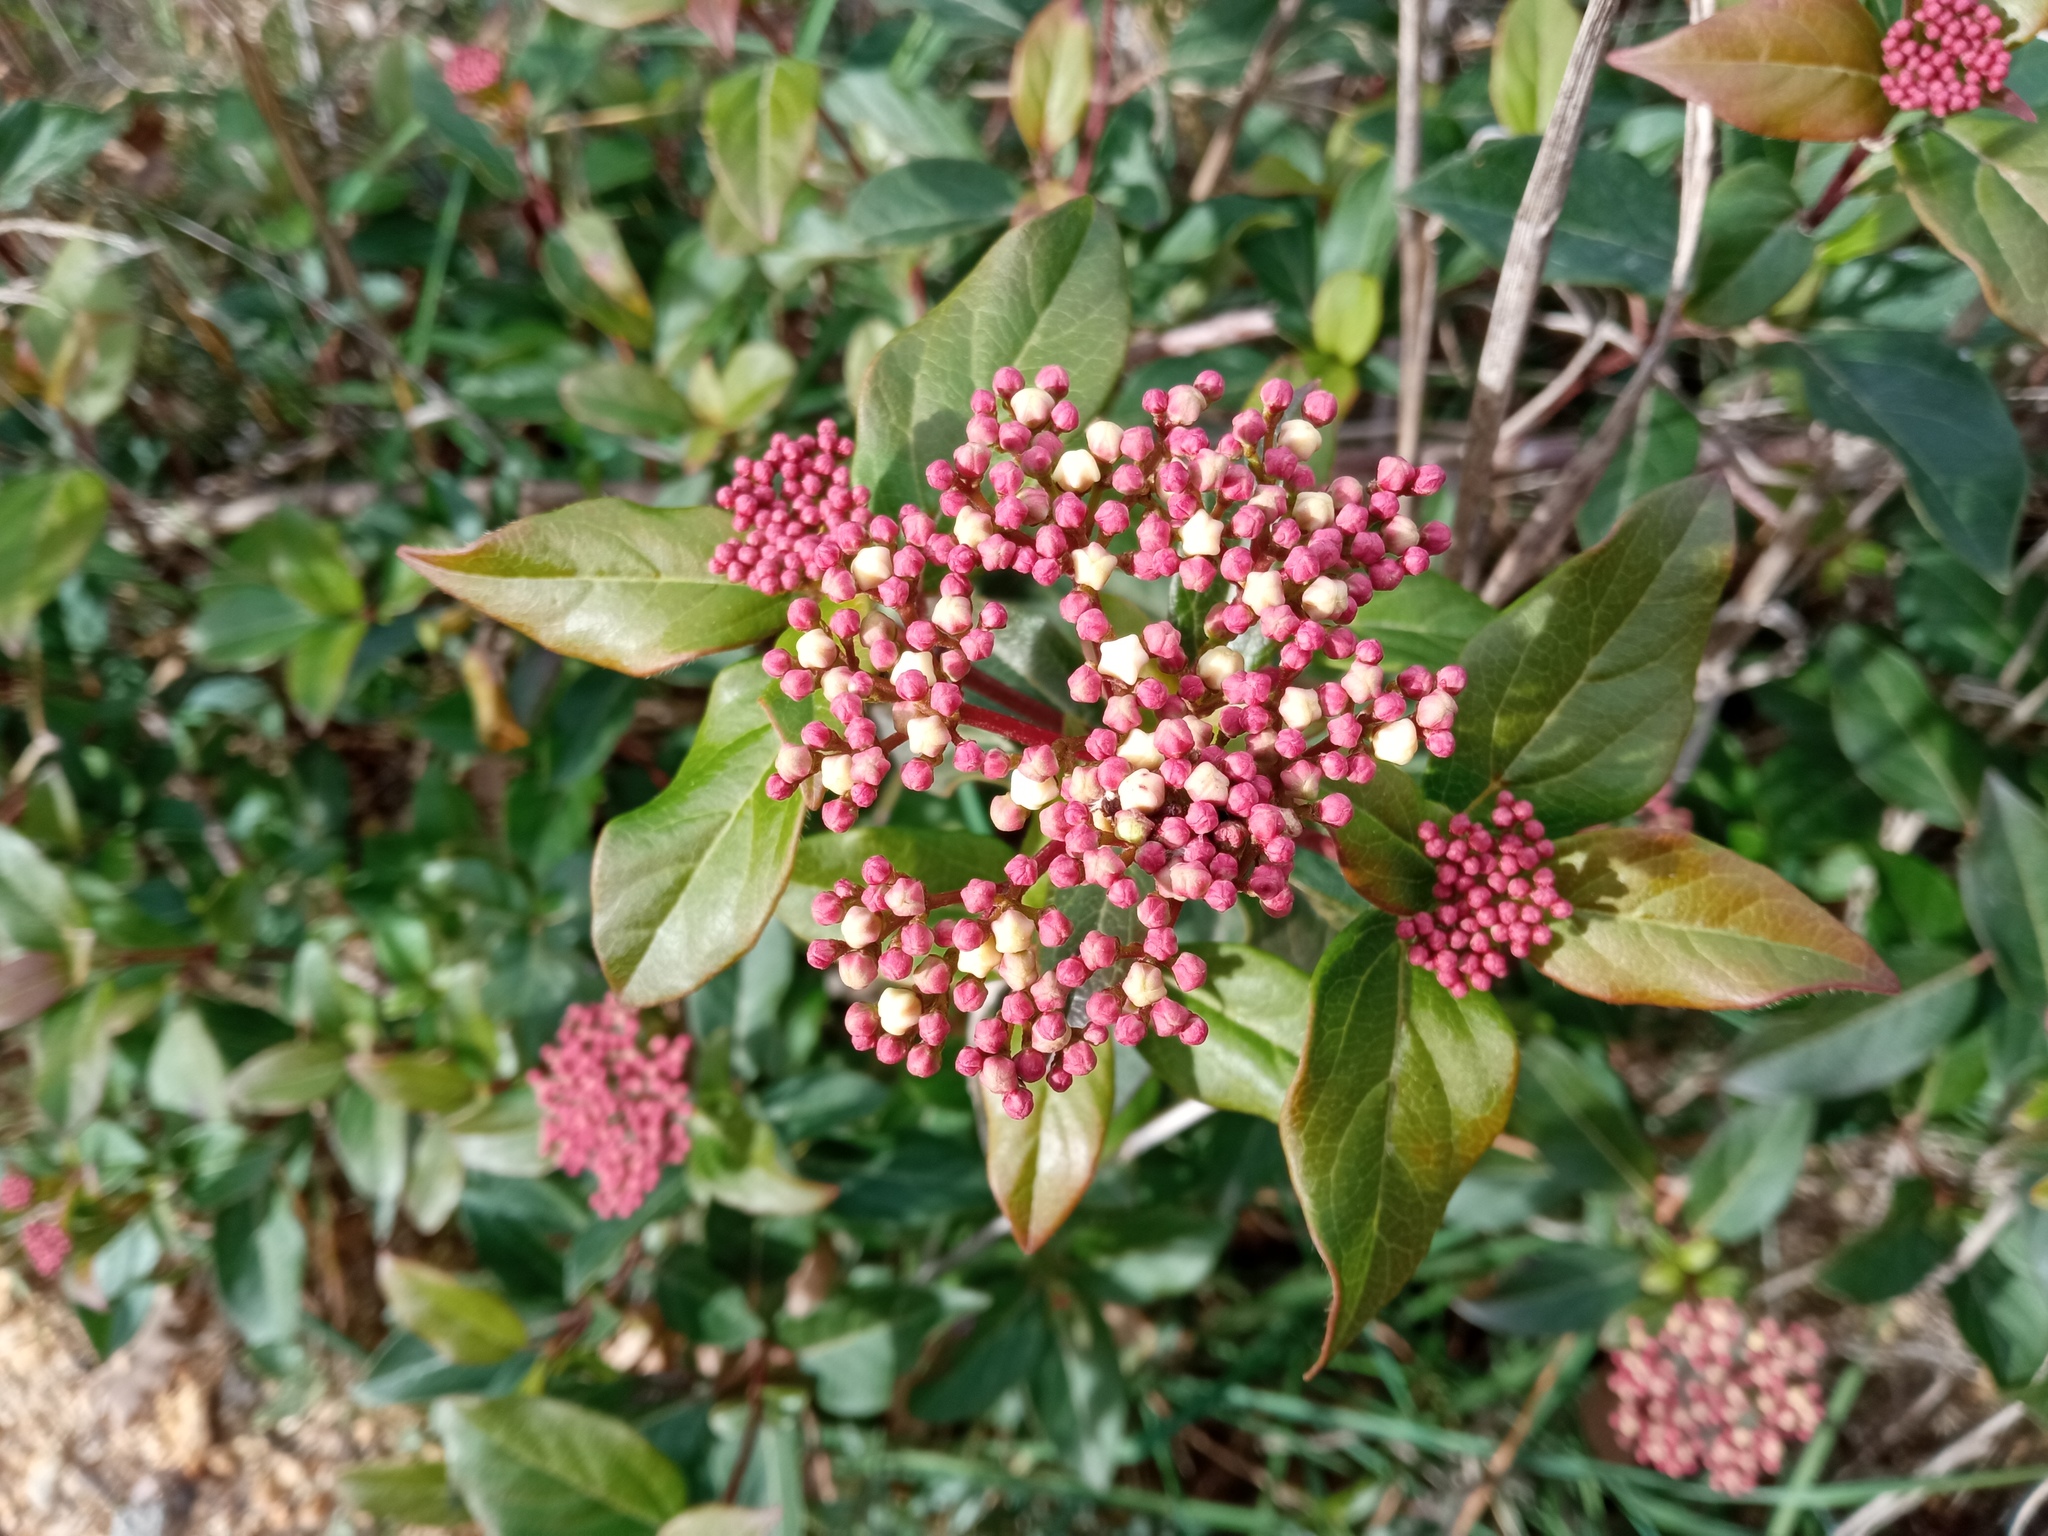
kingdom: Plantae
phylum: Tracheophyta
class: Magnoliopsida
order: Dipsacales
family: Viburnaceae
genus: Viburnum
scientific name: Viburnum tinus
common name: Laurustinus
